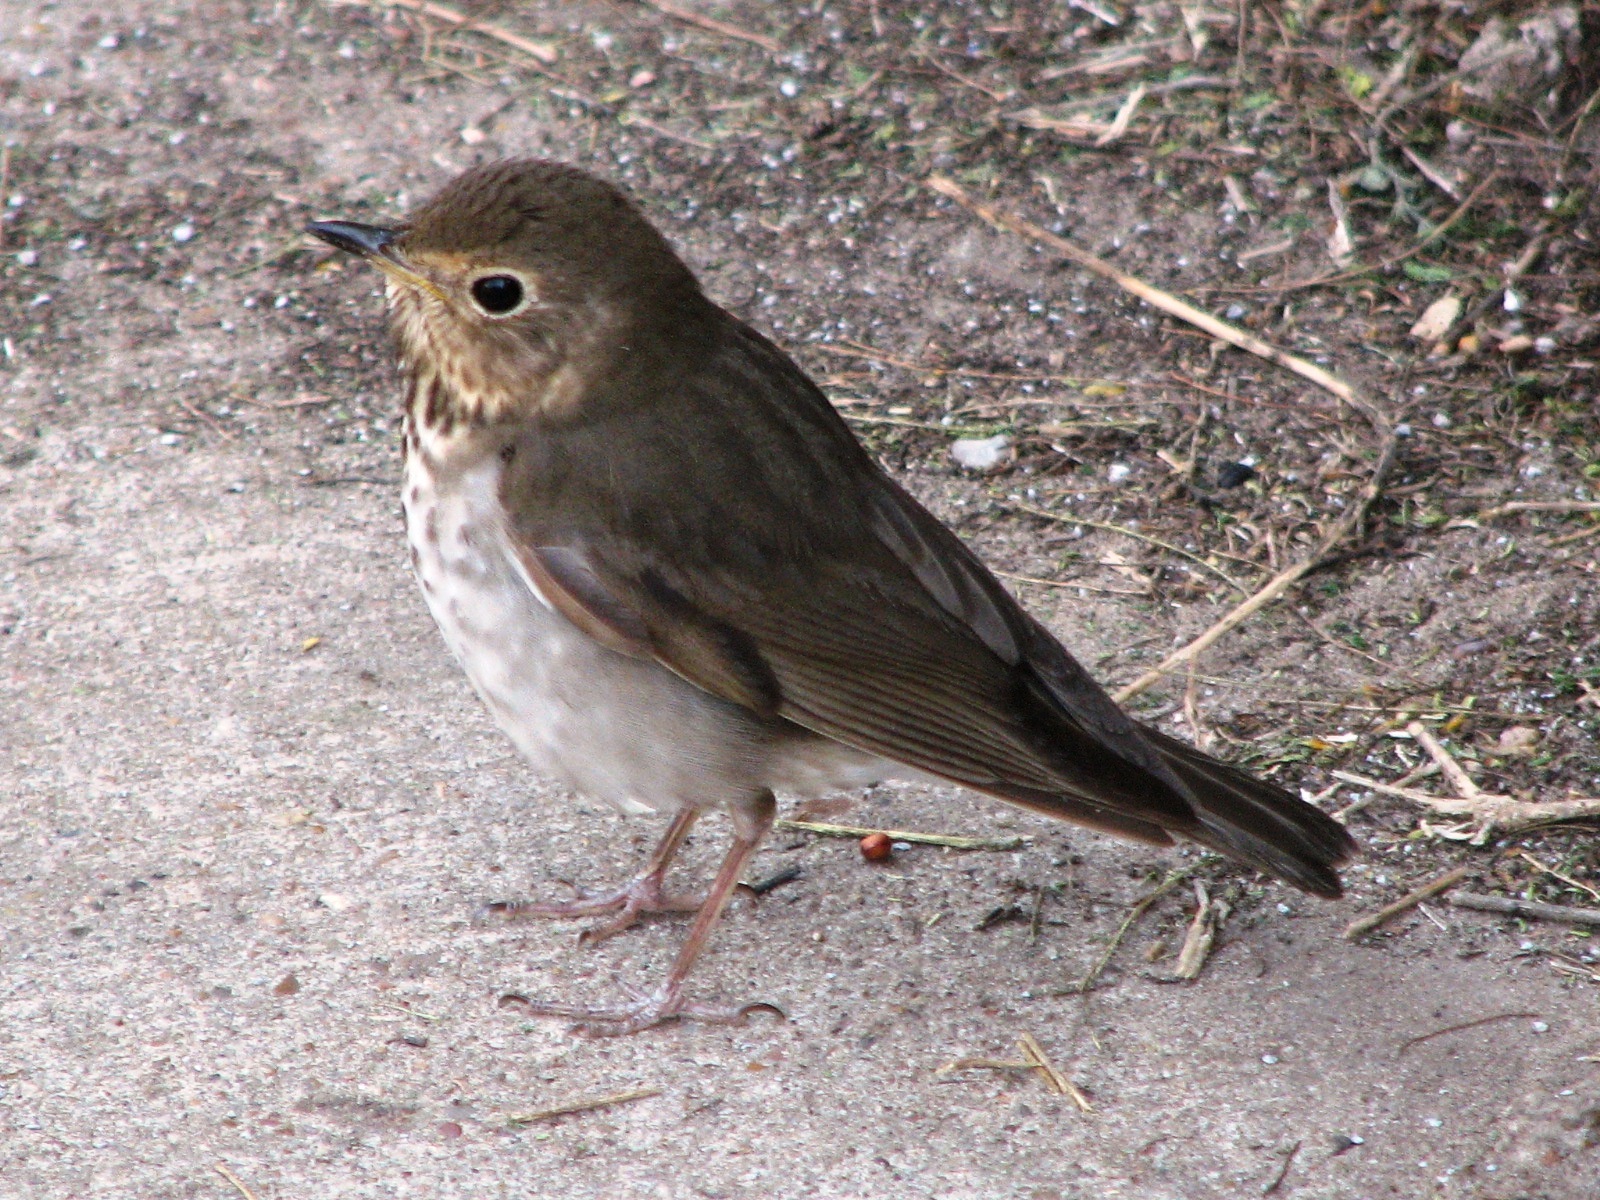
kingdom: Animalia
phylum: Chordata
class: Aves
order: Passeriformes
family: Turdidae
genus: Catharus
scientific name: Catharus ustulatus
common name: Swainson's thrush
